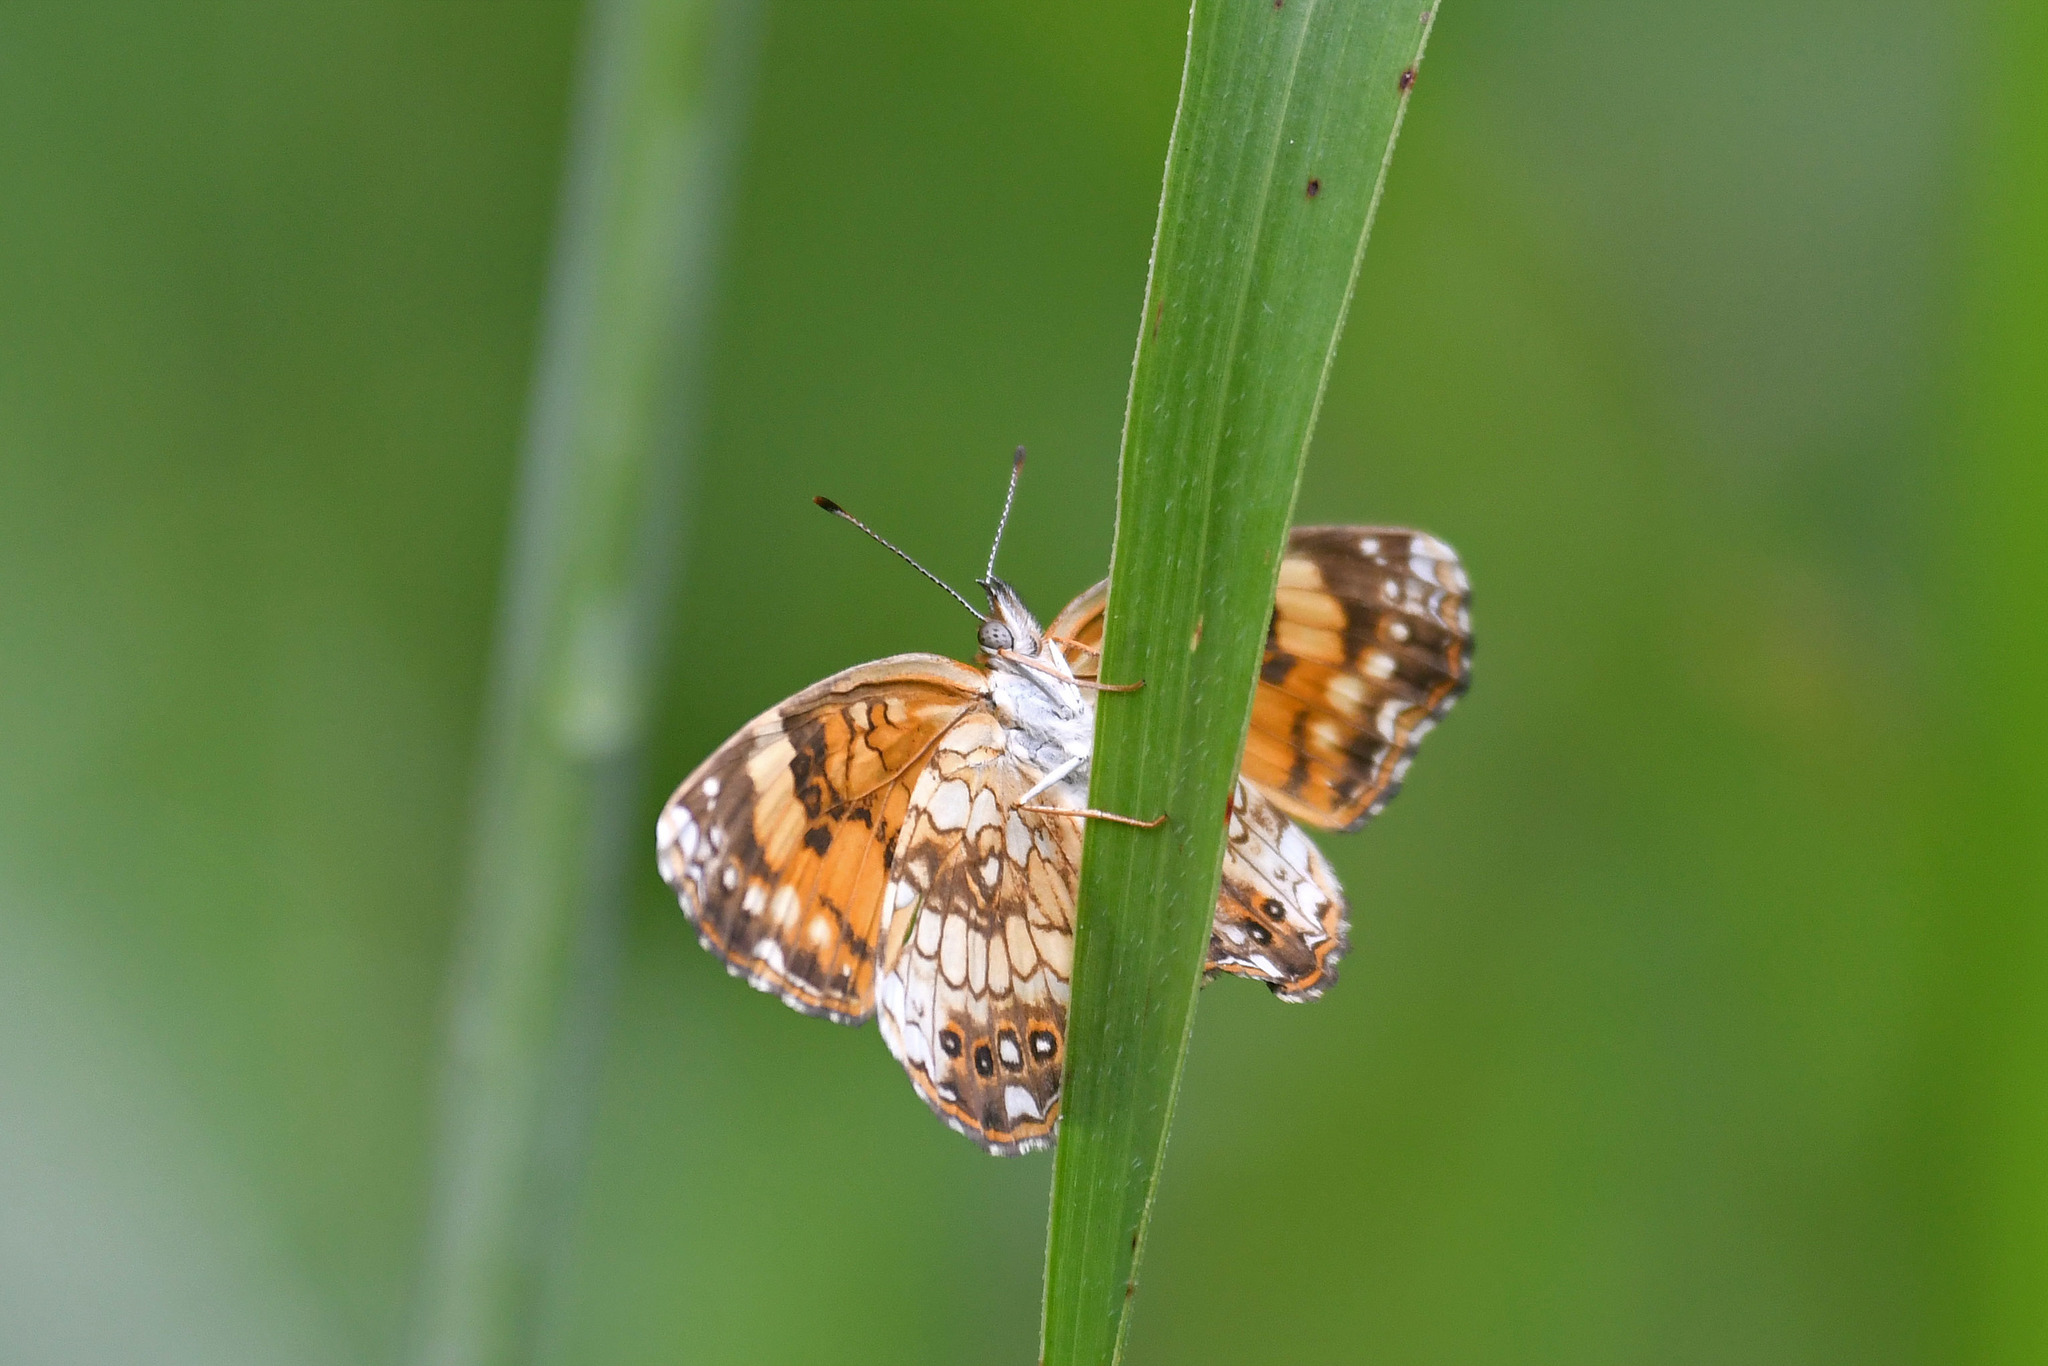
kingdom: Animalia
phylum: Arthropoda
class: Insecta
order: Lepidoptera
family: Nymphalidae
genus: Chlosyne
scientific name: Chlosyne nycteis
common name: Silvery checkerspot
